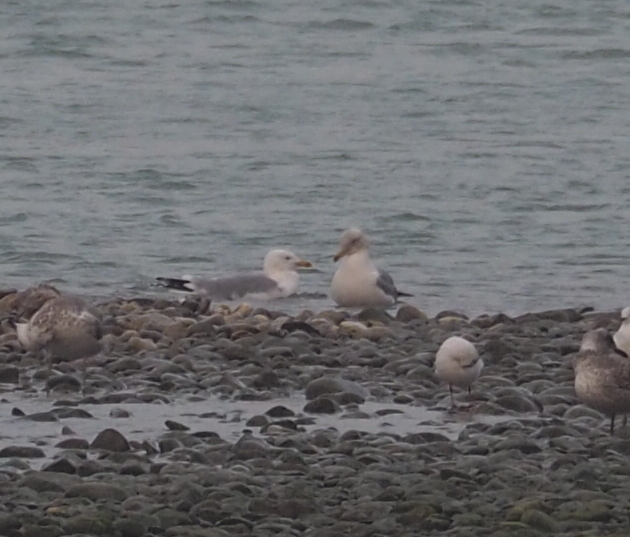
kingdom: Animalia
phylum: Chordata
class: Aves
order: Charadriiformes
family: Laridae
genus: Larus
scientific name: Larus argentatus
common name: Herring gull
